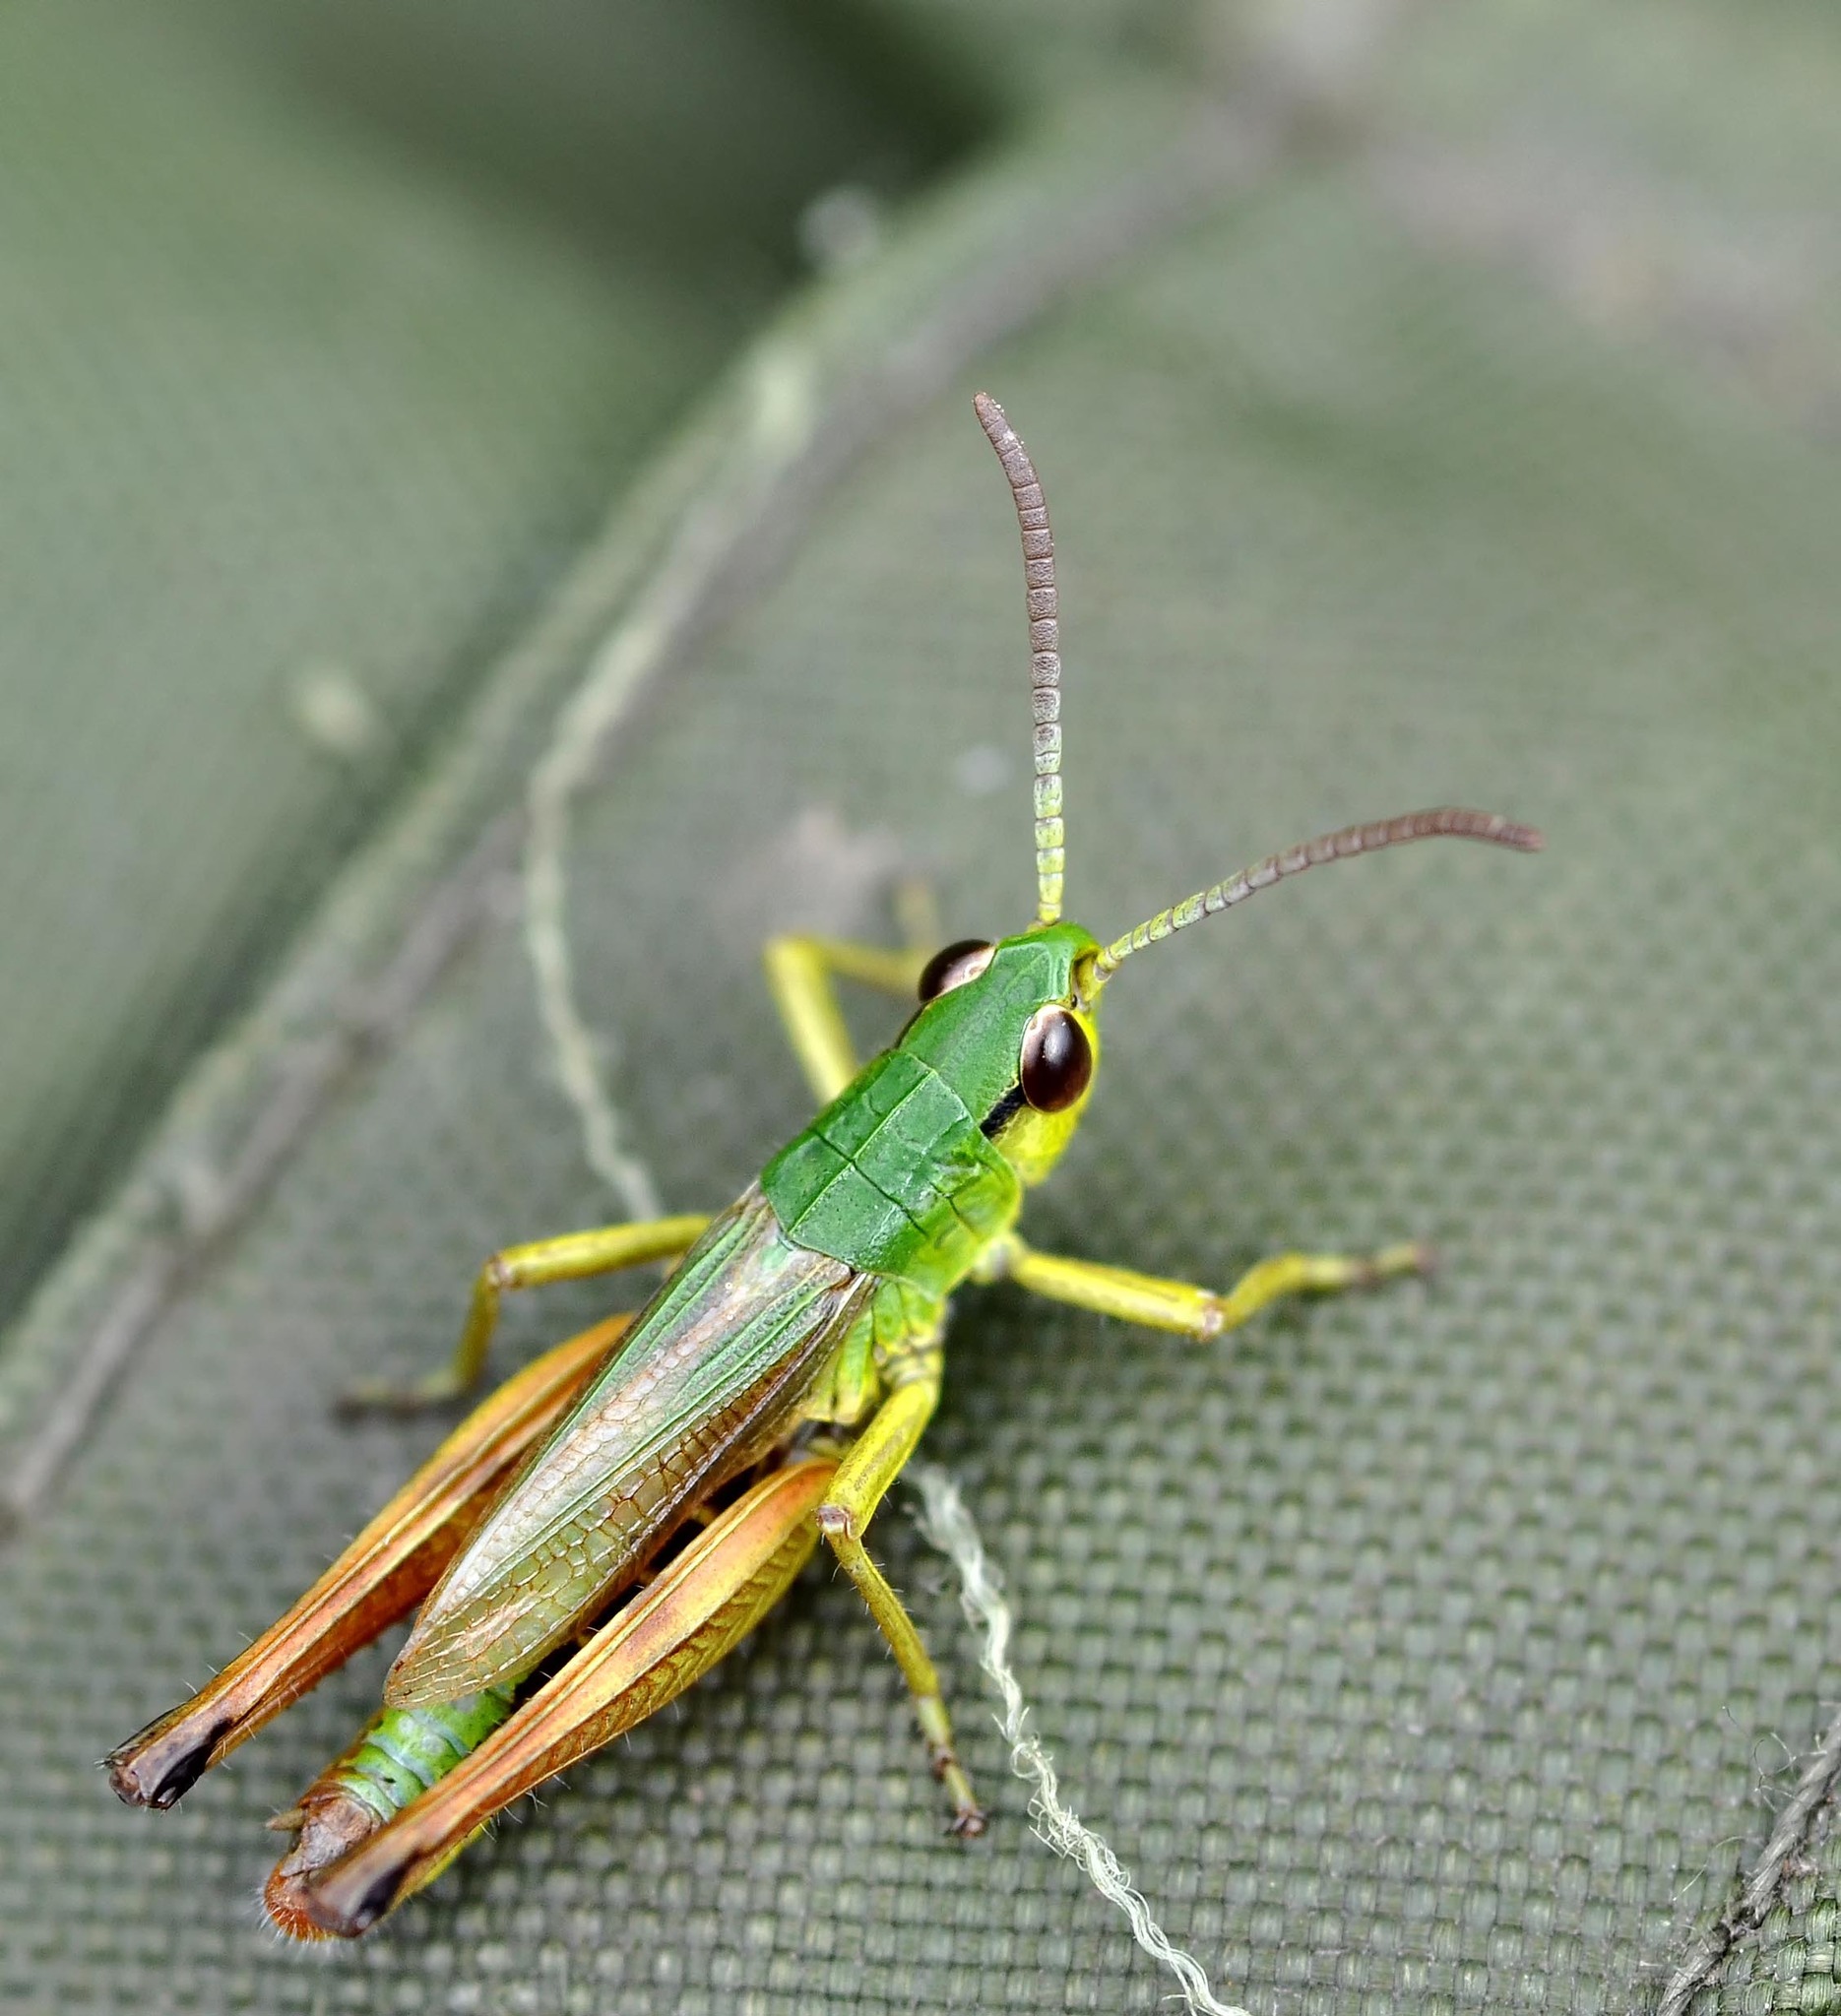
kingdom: Animalia
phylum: Arthropoda
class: Insecta
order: Orthoptera
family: Acrididae
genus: Pseudochorthippus
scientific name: Pseudochorthippus parallelus
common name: Meadow grasshopper
